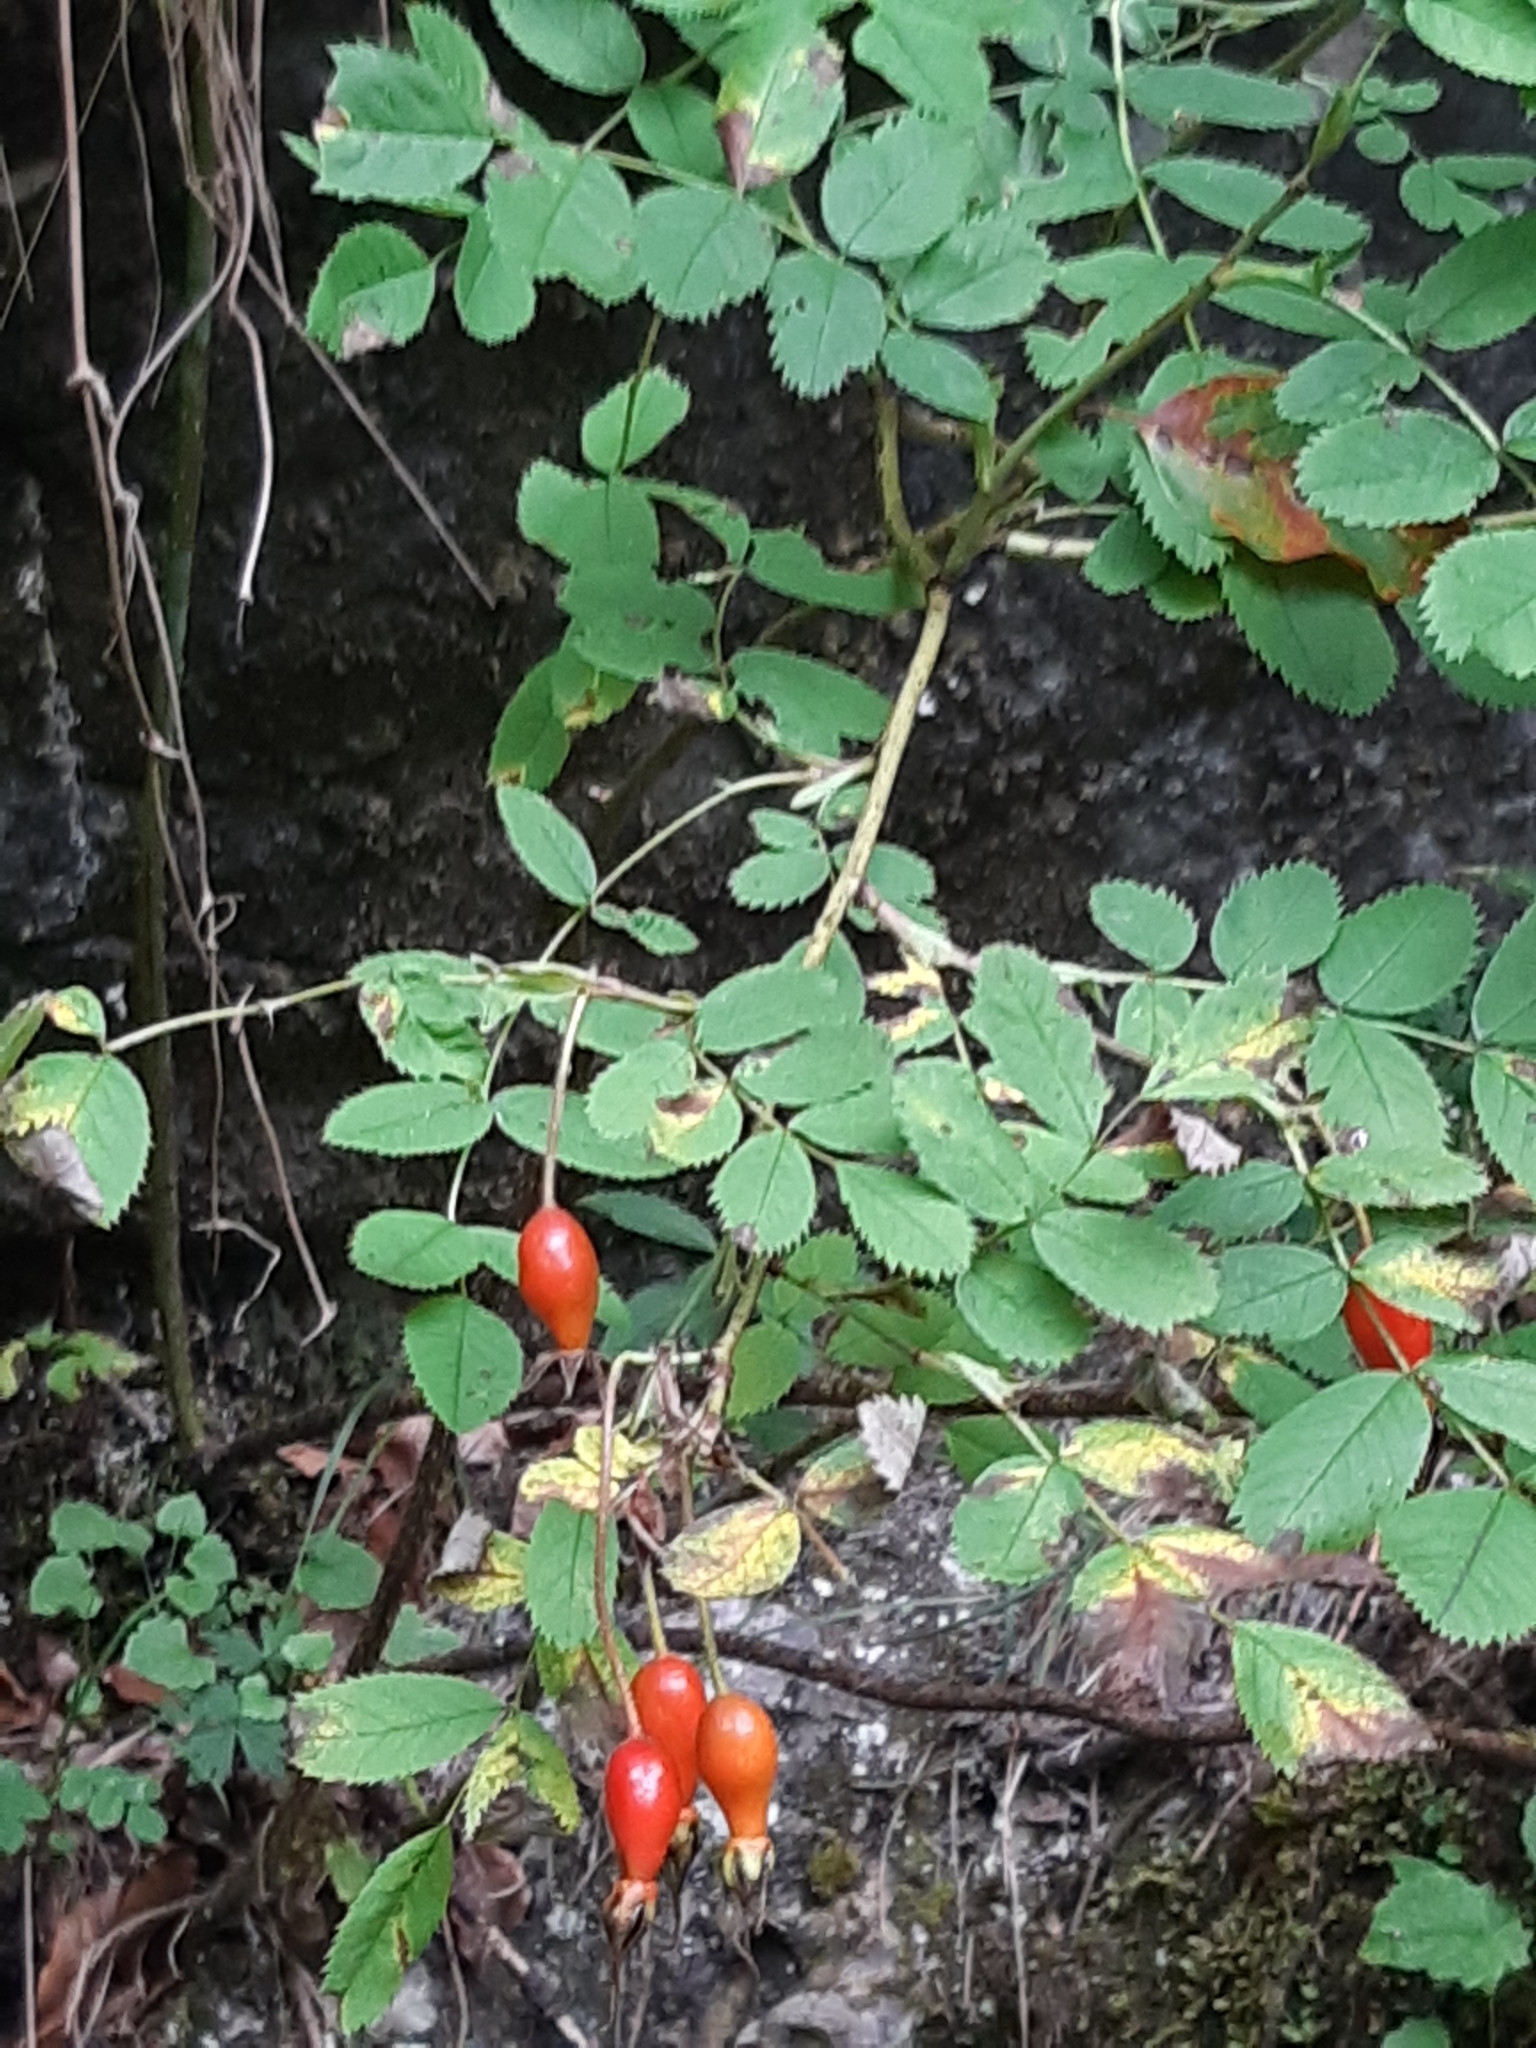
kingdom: Plantae
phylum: Tracheophyta
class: Magnoliopsida
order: Rosales
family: Rosaceae
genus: Rosa
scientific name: Rosa pendulina
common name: Alpine rose
